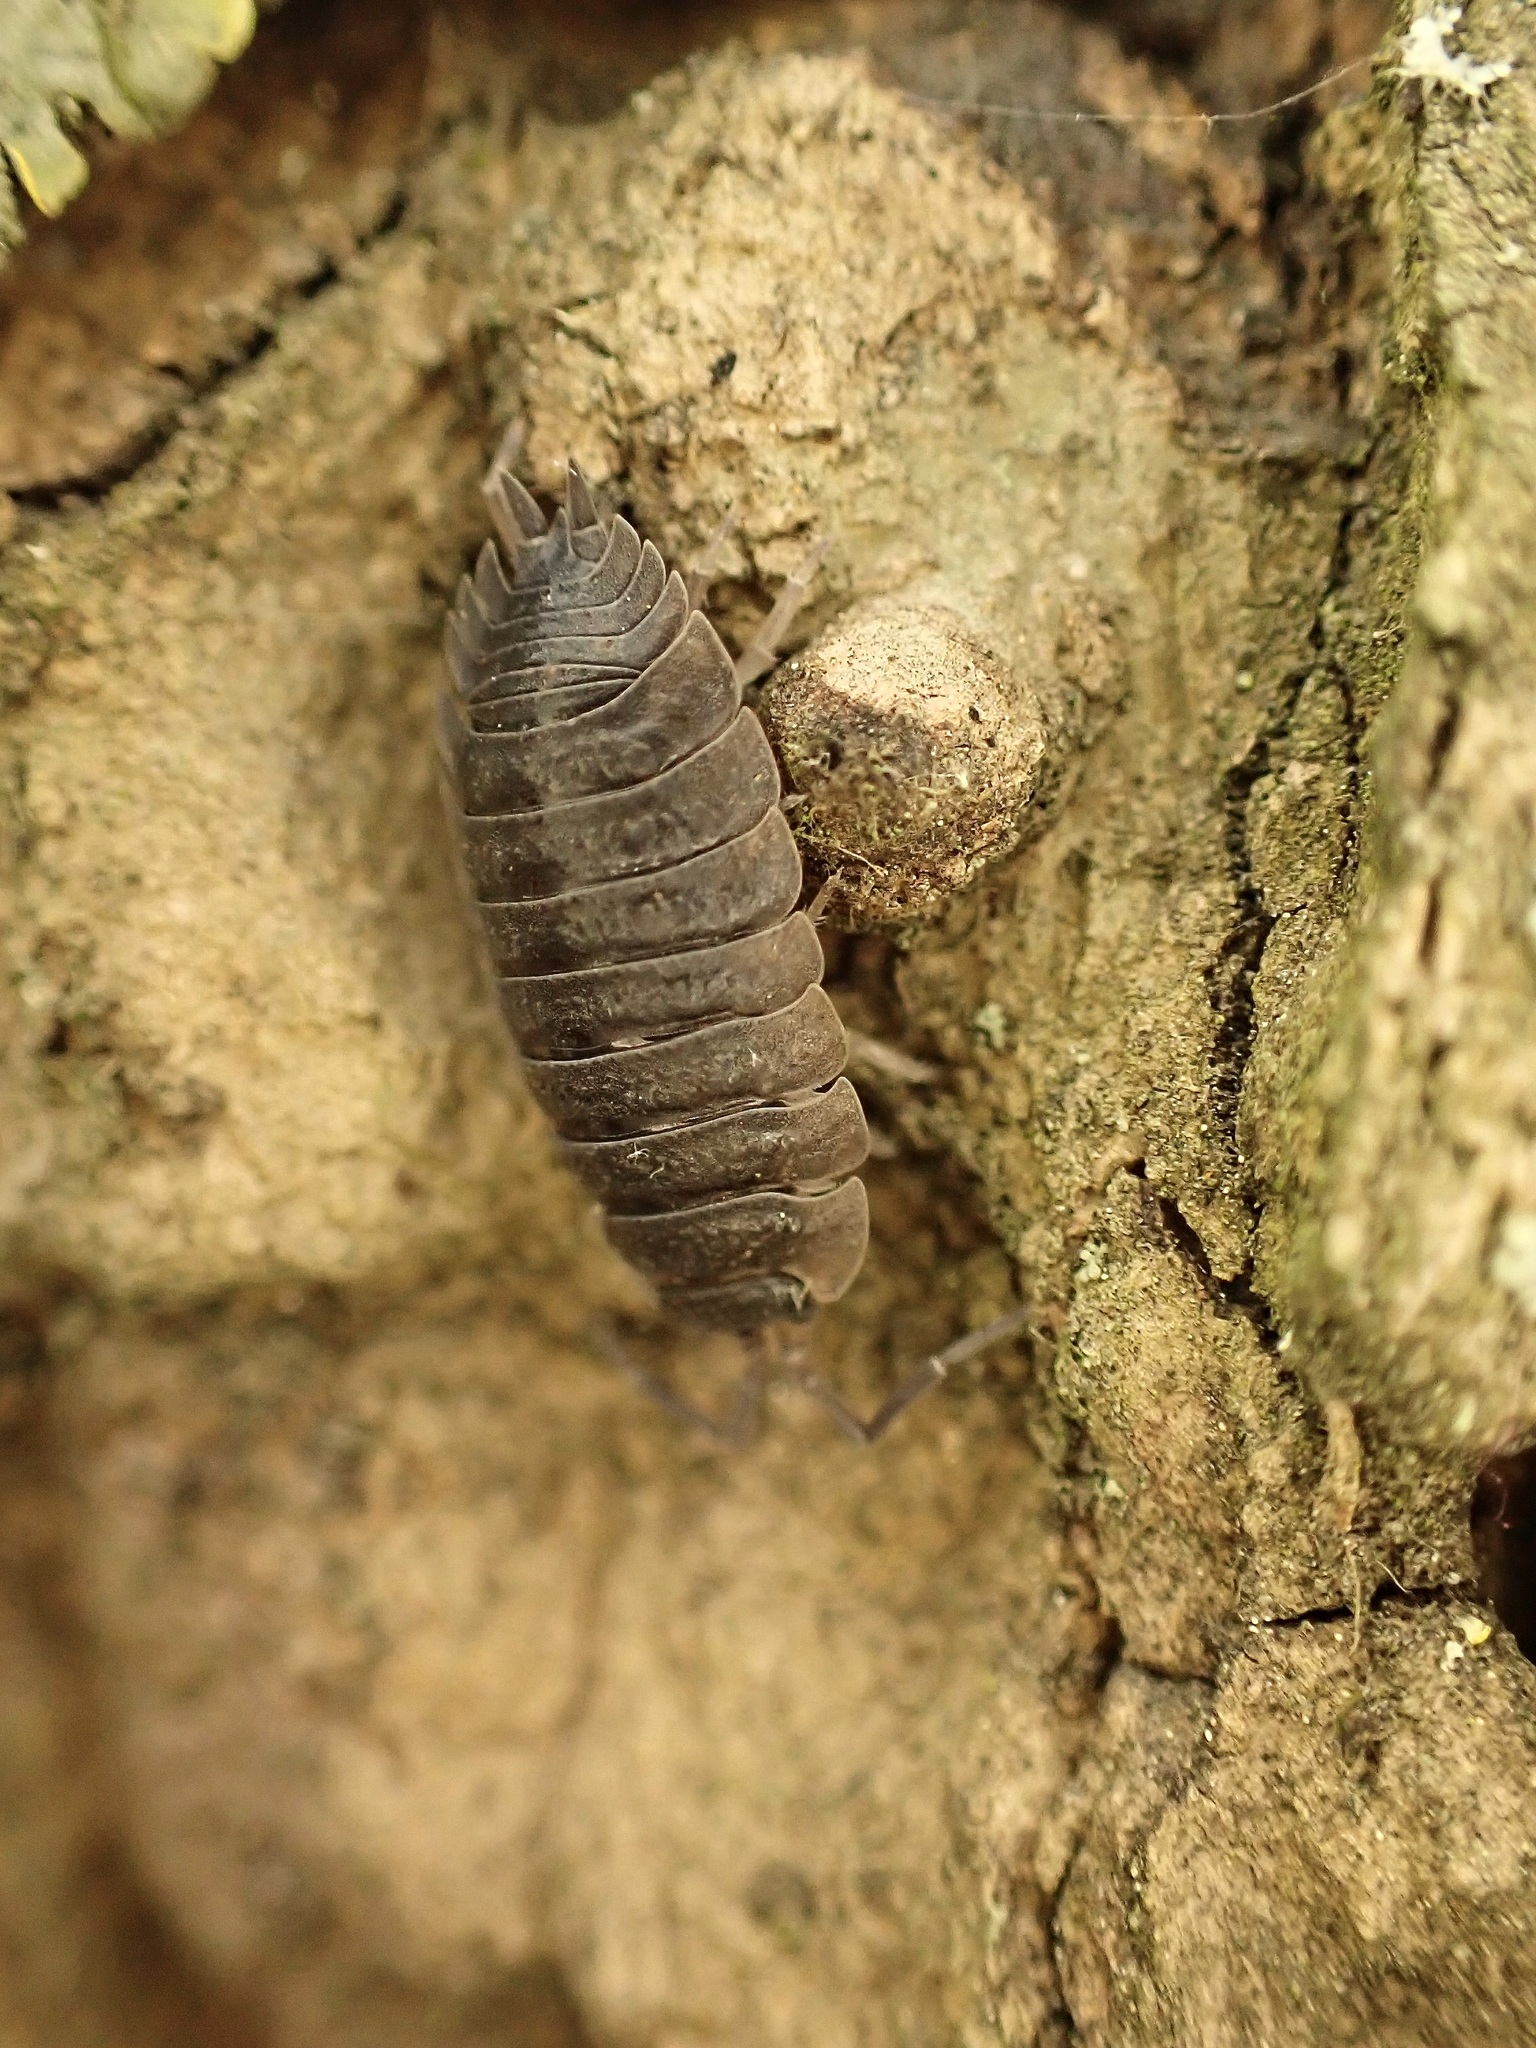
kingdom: Animalia
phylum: Arthropoda
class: Malacostraca
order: Isopoda
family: Porcellionidae
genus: Porcellio
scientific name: Porcellio scaber
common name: Common rough woodlouse
